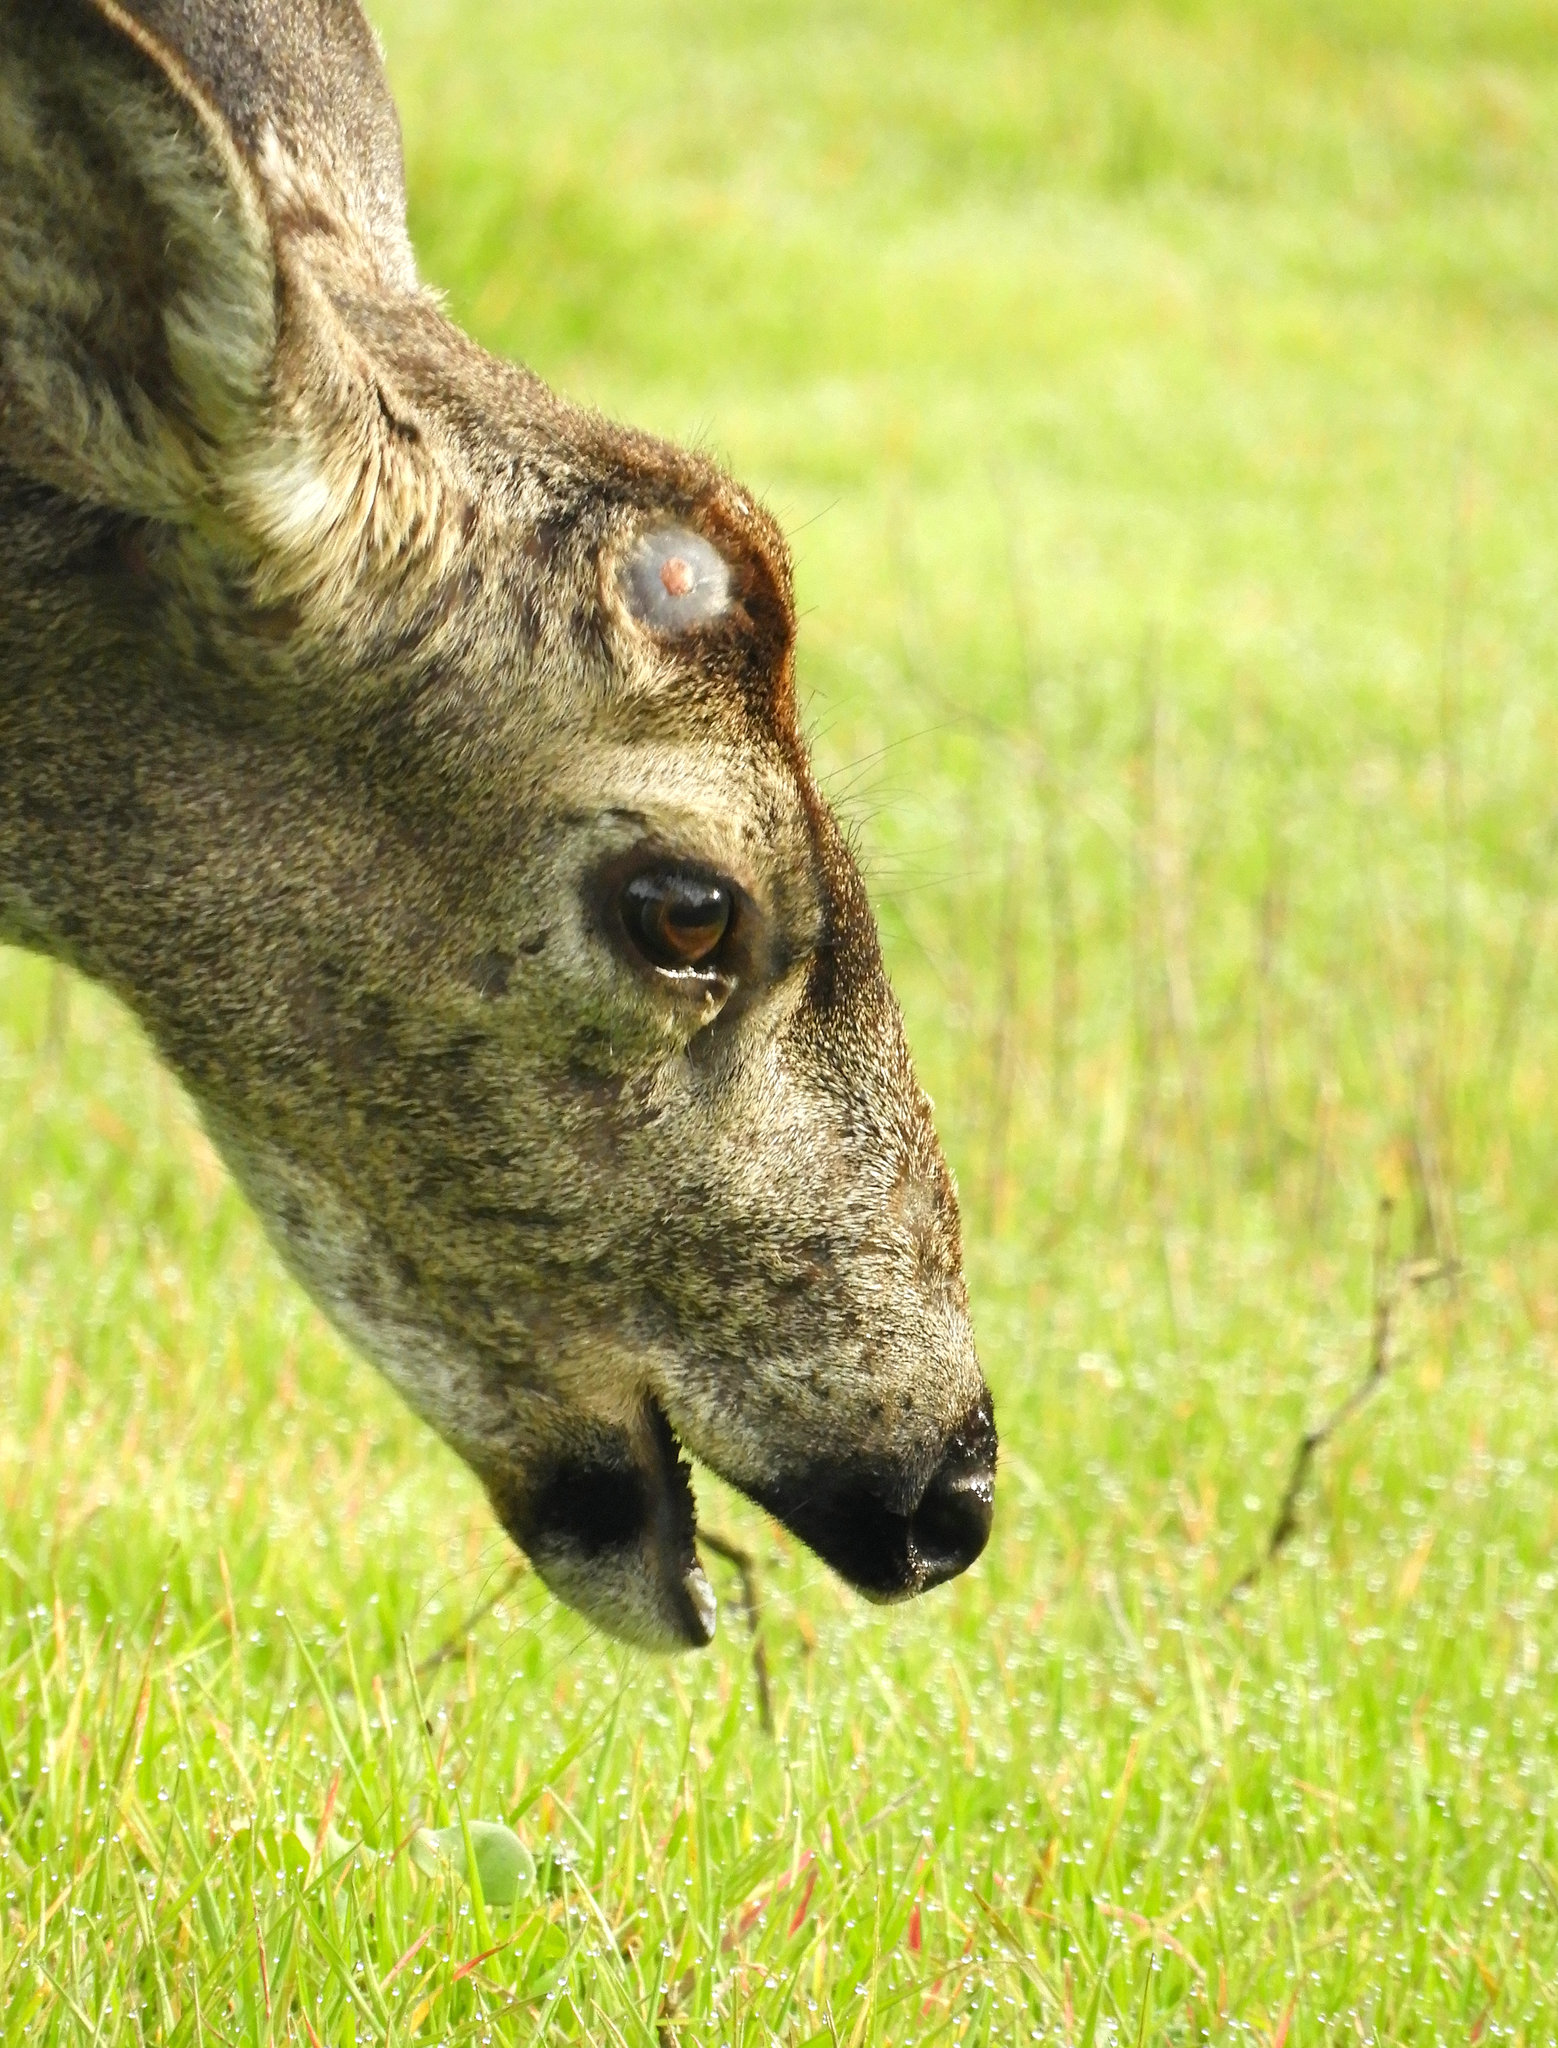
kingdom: Animalia
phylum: Chordata
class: Mammalia
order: Artiodactyla
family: Cervidae
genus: Odocoileus
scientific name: Odocoileus hemionus
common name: Mule deer
